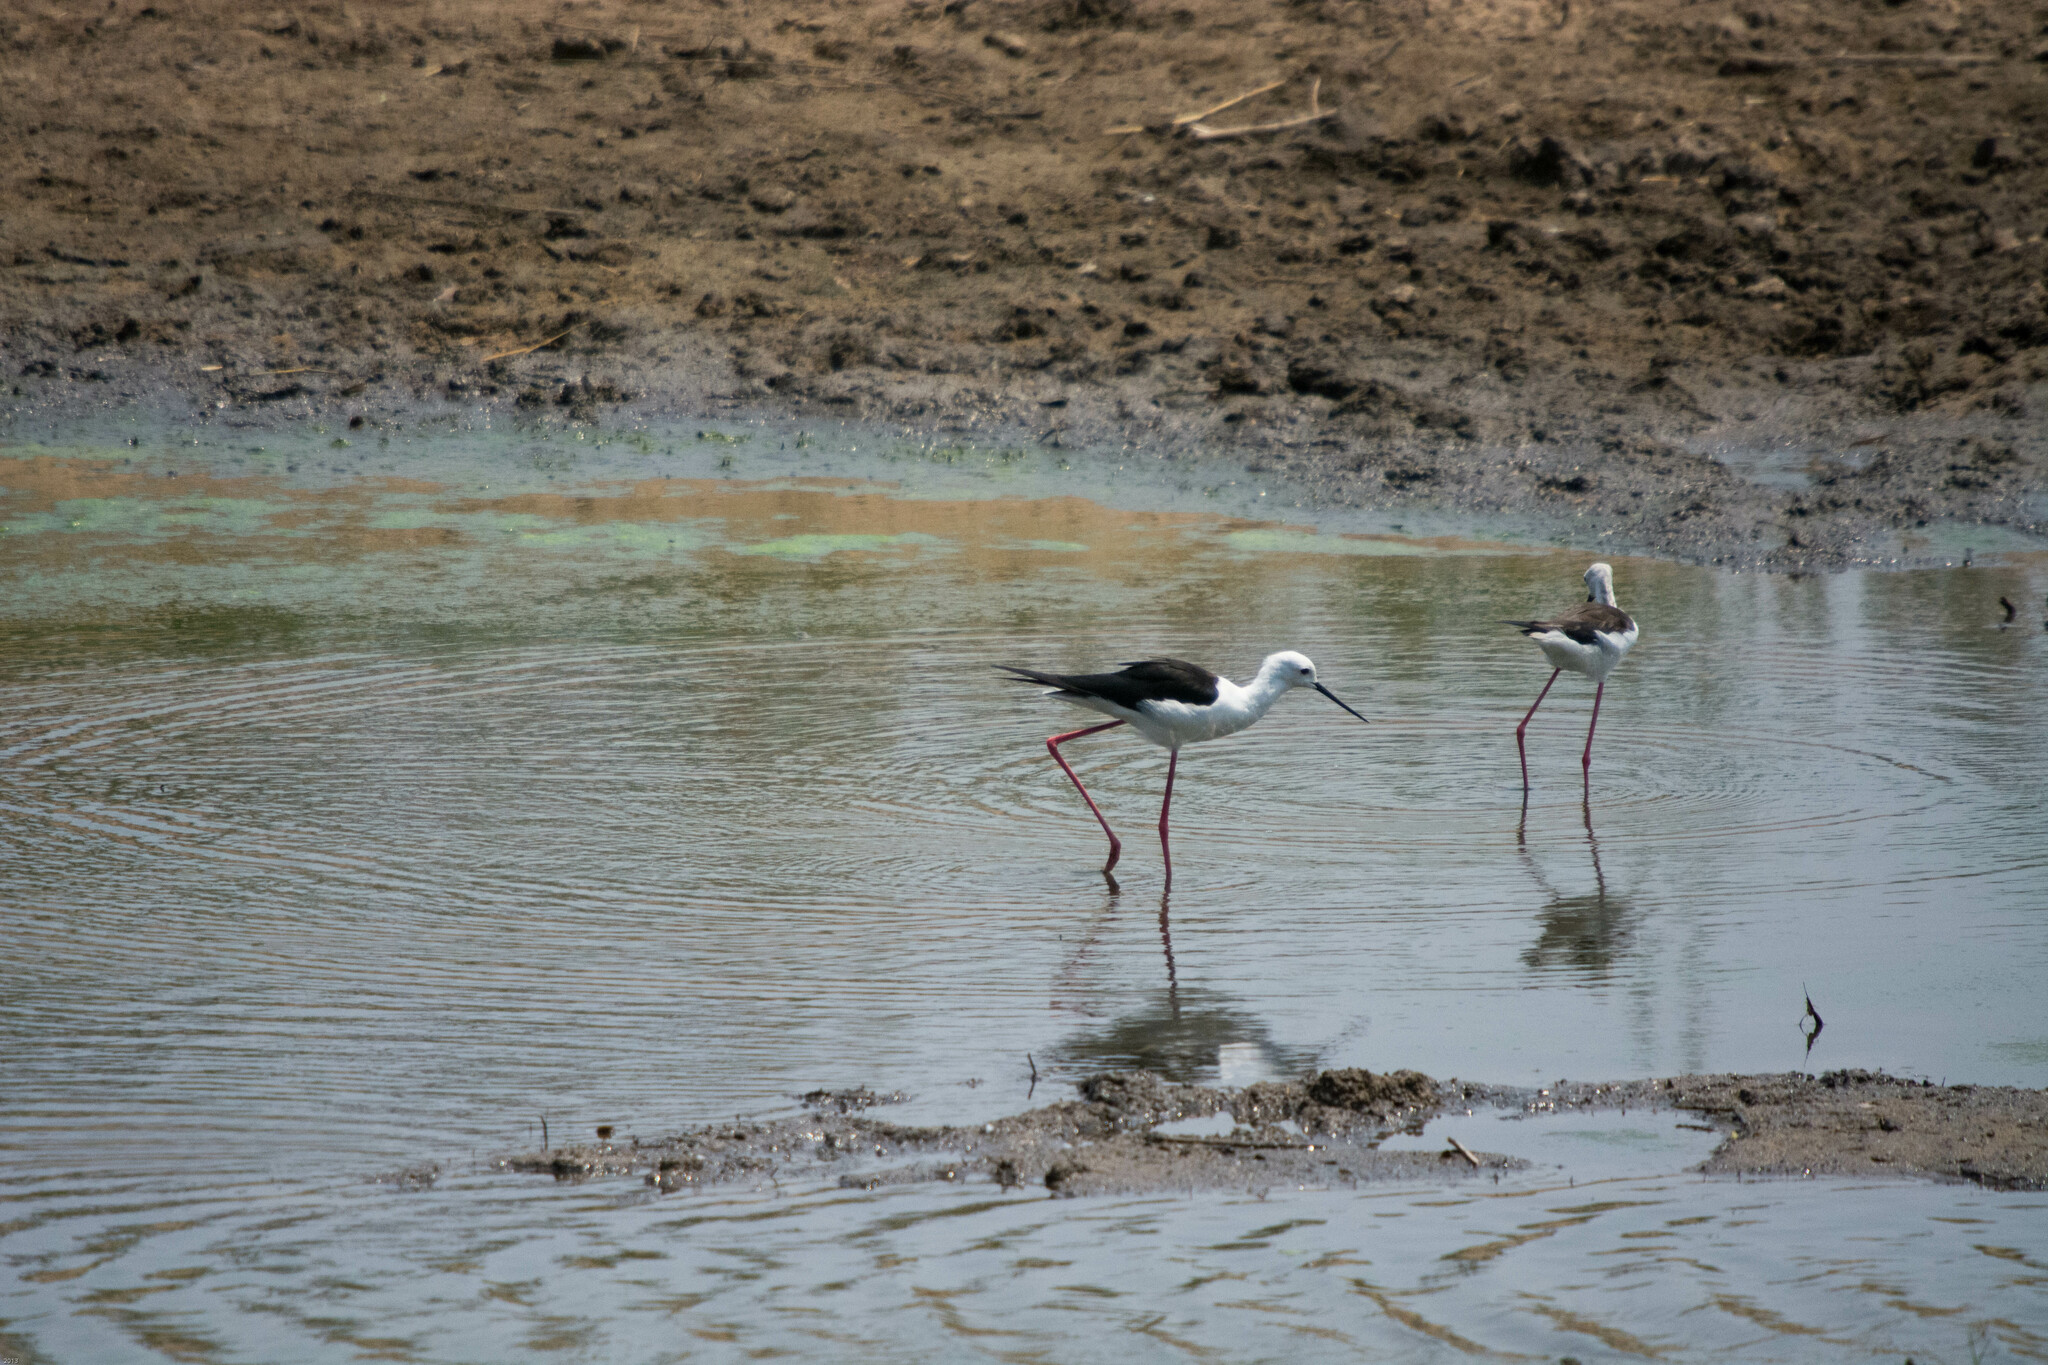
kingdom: Animalia
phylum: Chordata
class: Aves
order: Charadriiformes
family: Recurvirostridae
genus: Himantopus
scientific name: Himantopus himantopus
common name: Black-winged stilt
